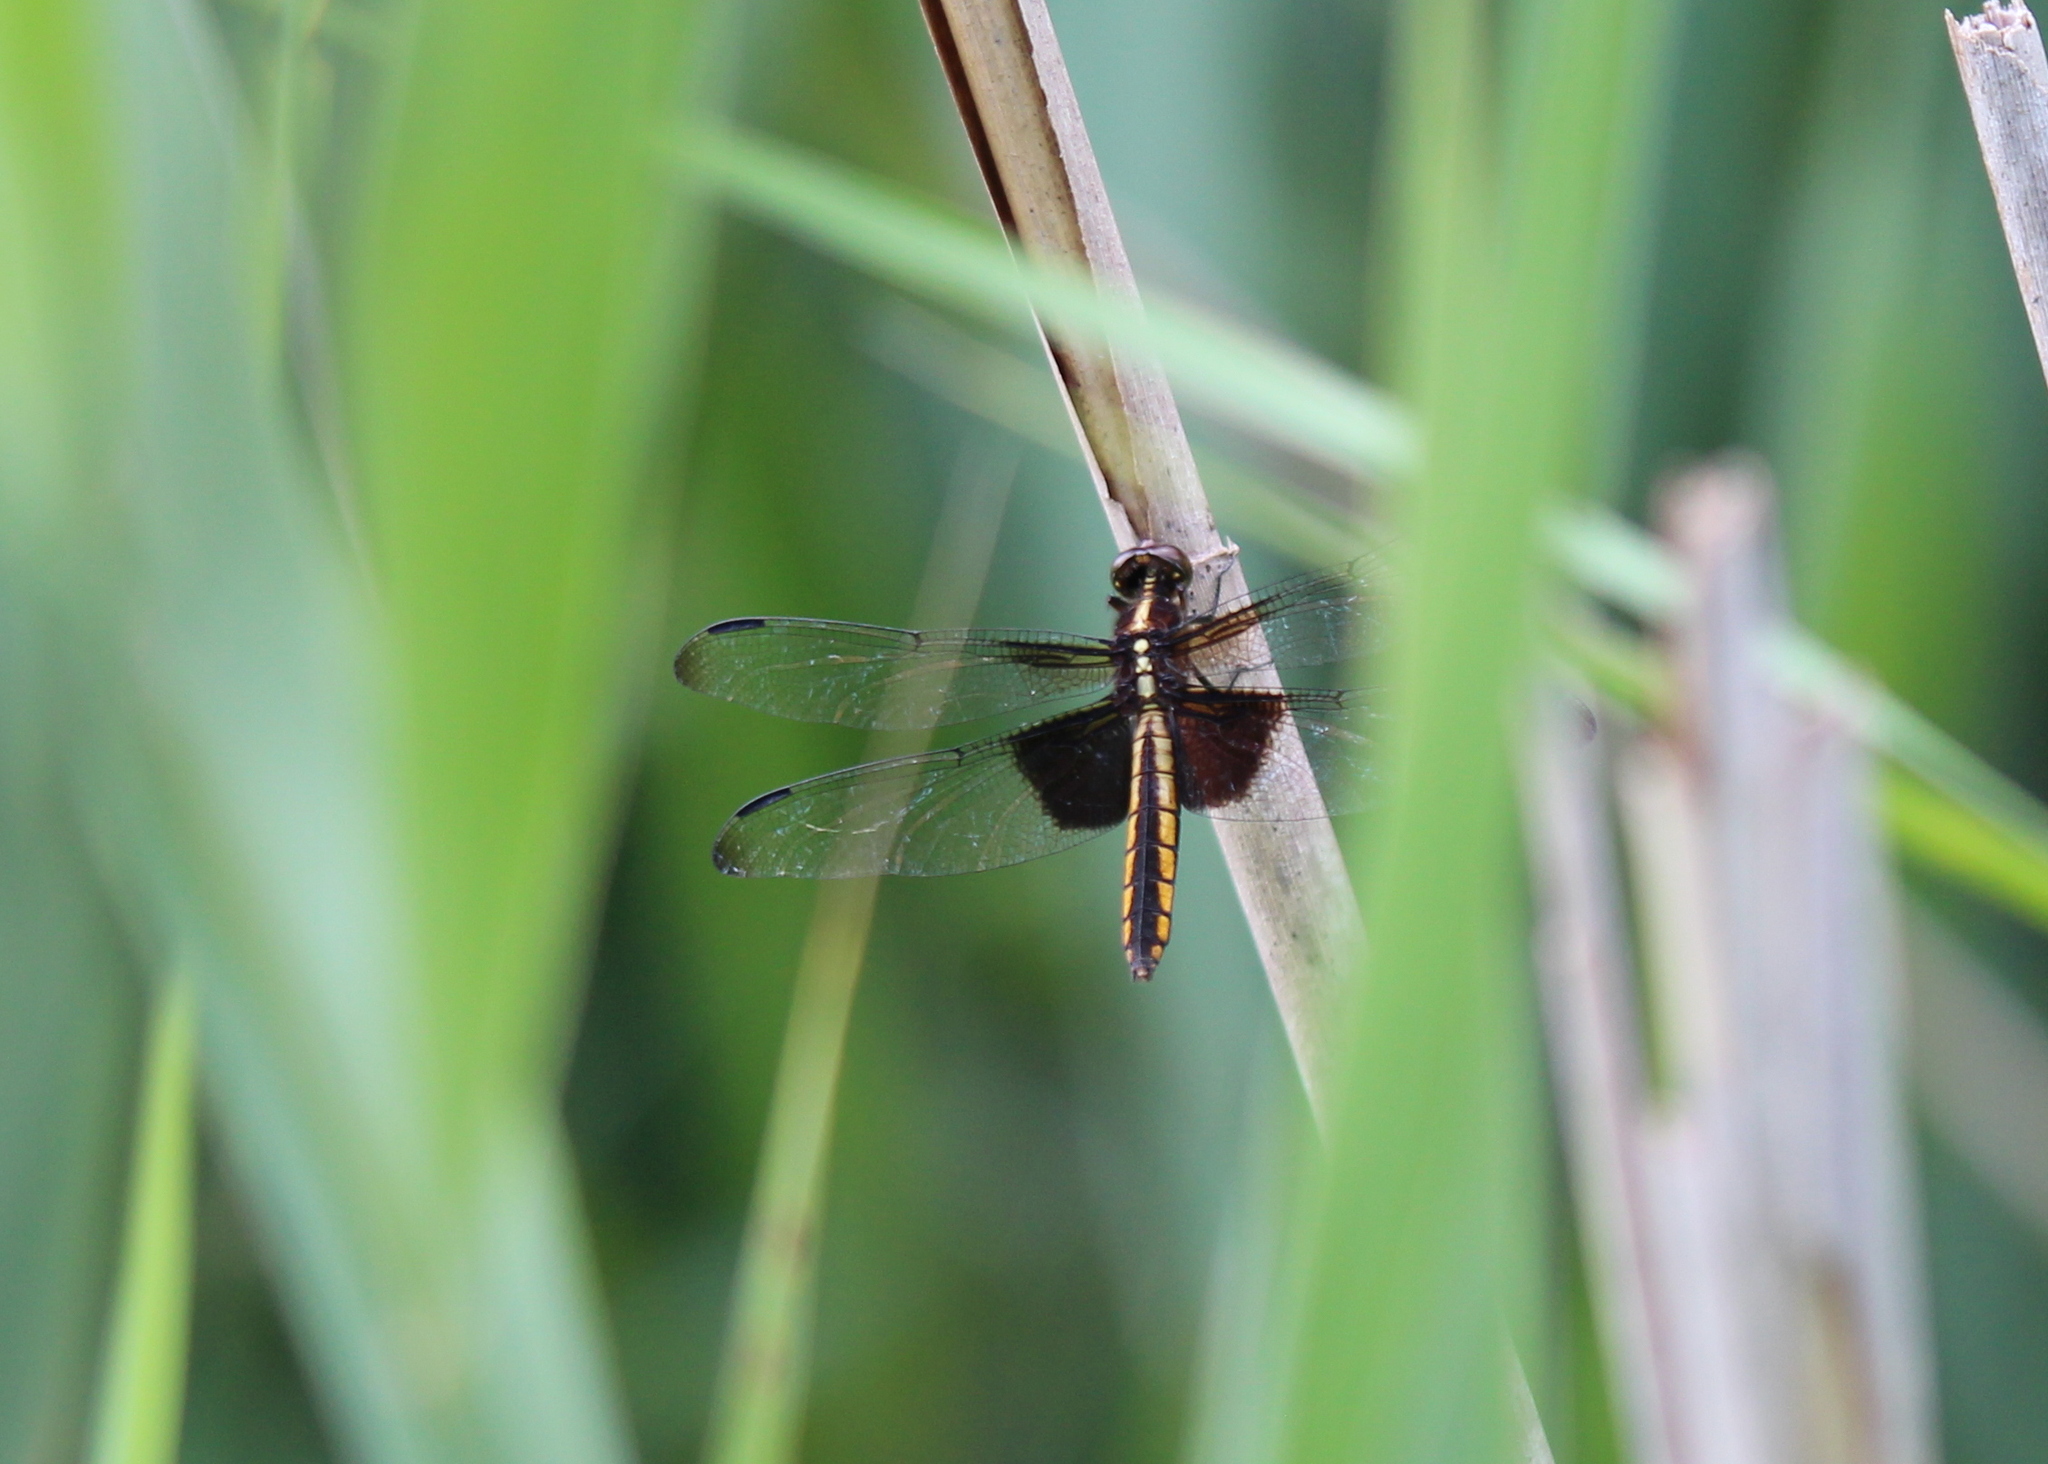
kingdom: Animalia
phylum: Arthropoda
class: Insecta
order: Odonata
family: Libellulidae
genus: Libellula
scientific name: Libellula luctuosa
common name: Widow skimmer
